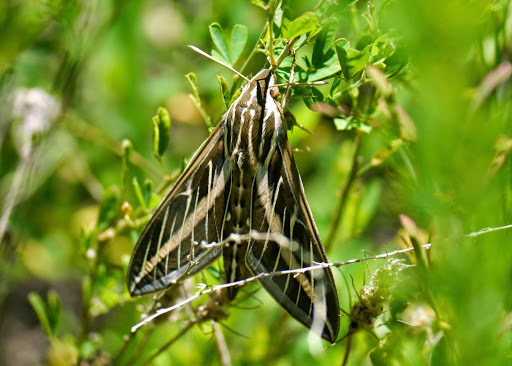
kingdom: Animalia
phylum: Arthropoda
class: Insecta
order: Lepidoptera
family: Sphingidae
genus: Hyles
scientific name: Hyles lineata
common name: White-lined sphinx
